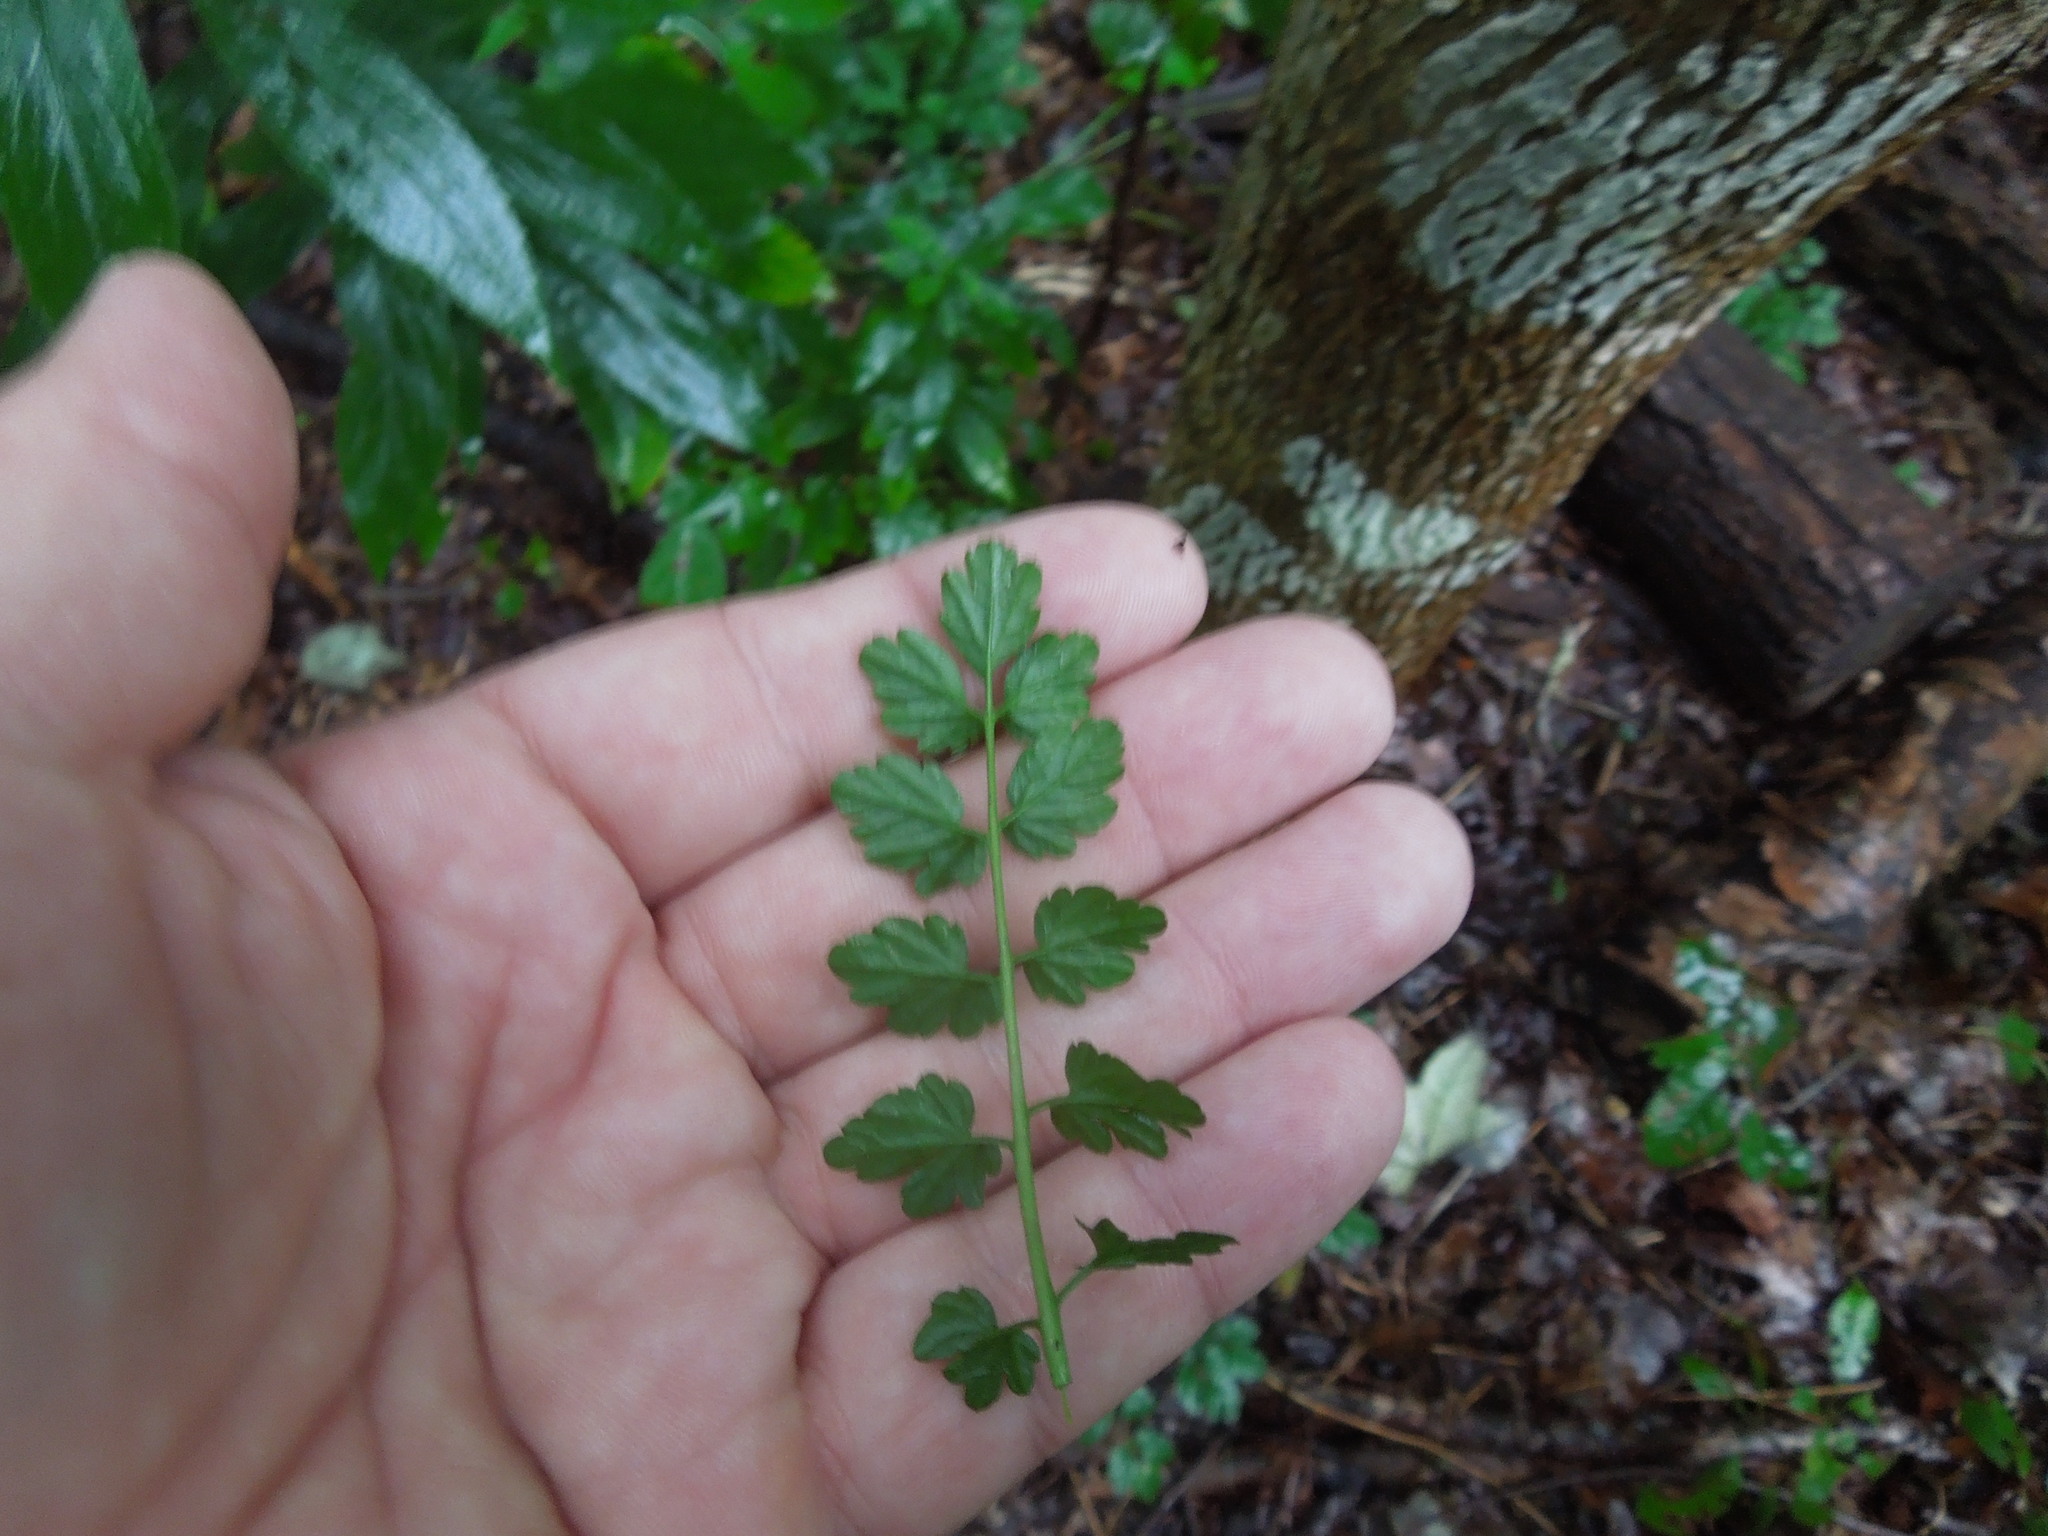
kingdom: Plantae
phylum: Tracheophyta
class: Magnoliopsida
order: Brassicales
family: Brassicaceae
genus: Cardamine
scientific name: Cardamine impatiens
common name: Narrow-leaved bitter-cress
